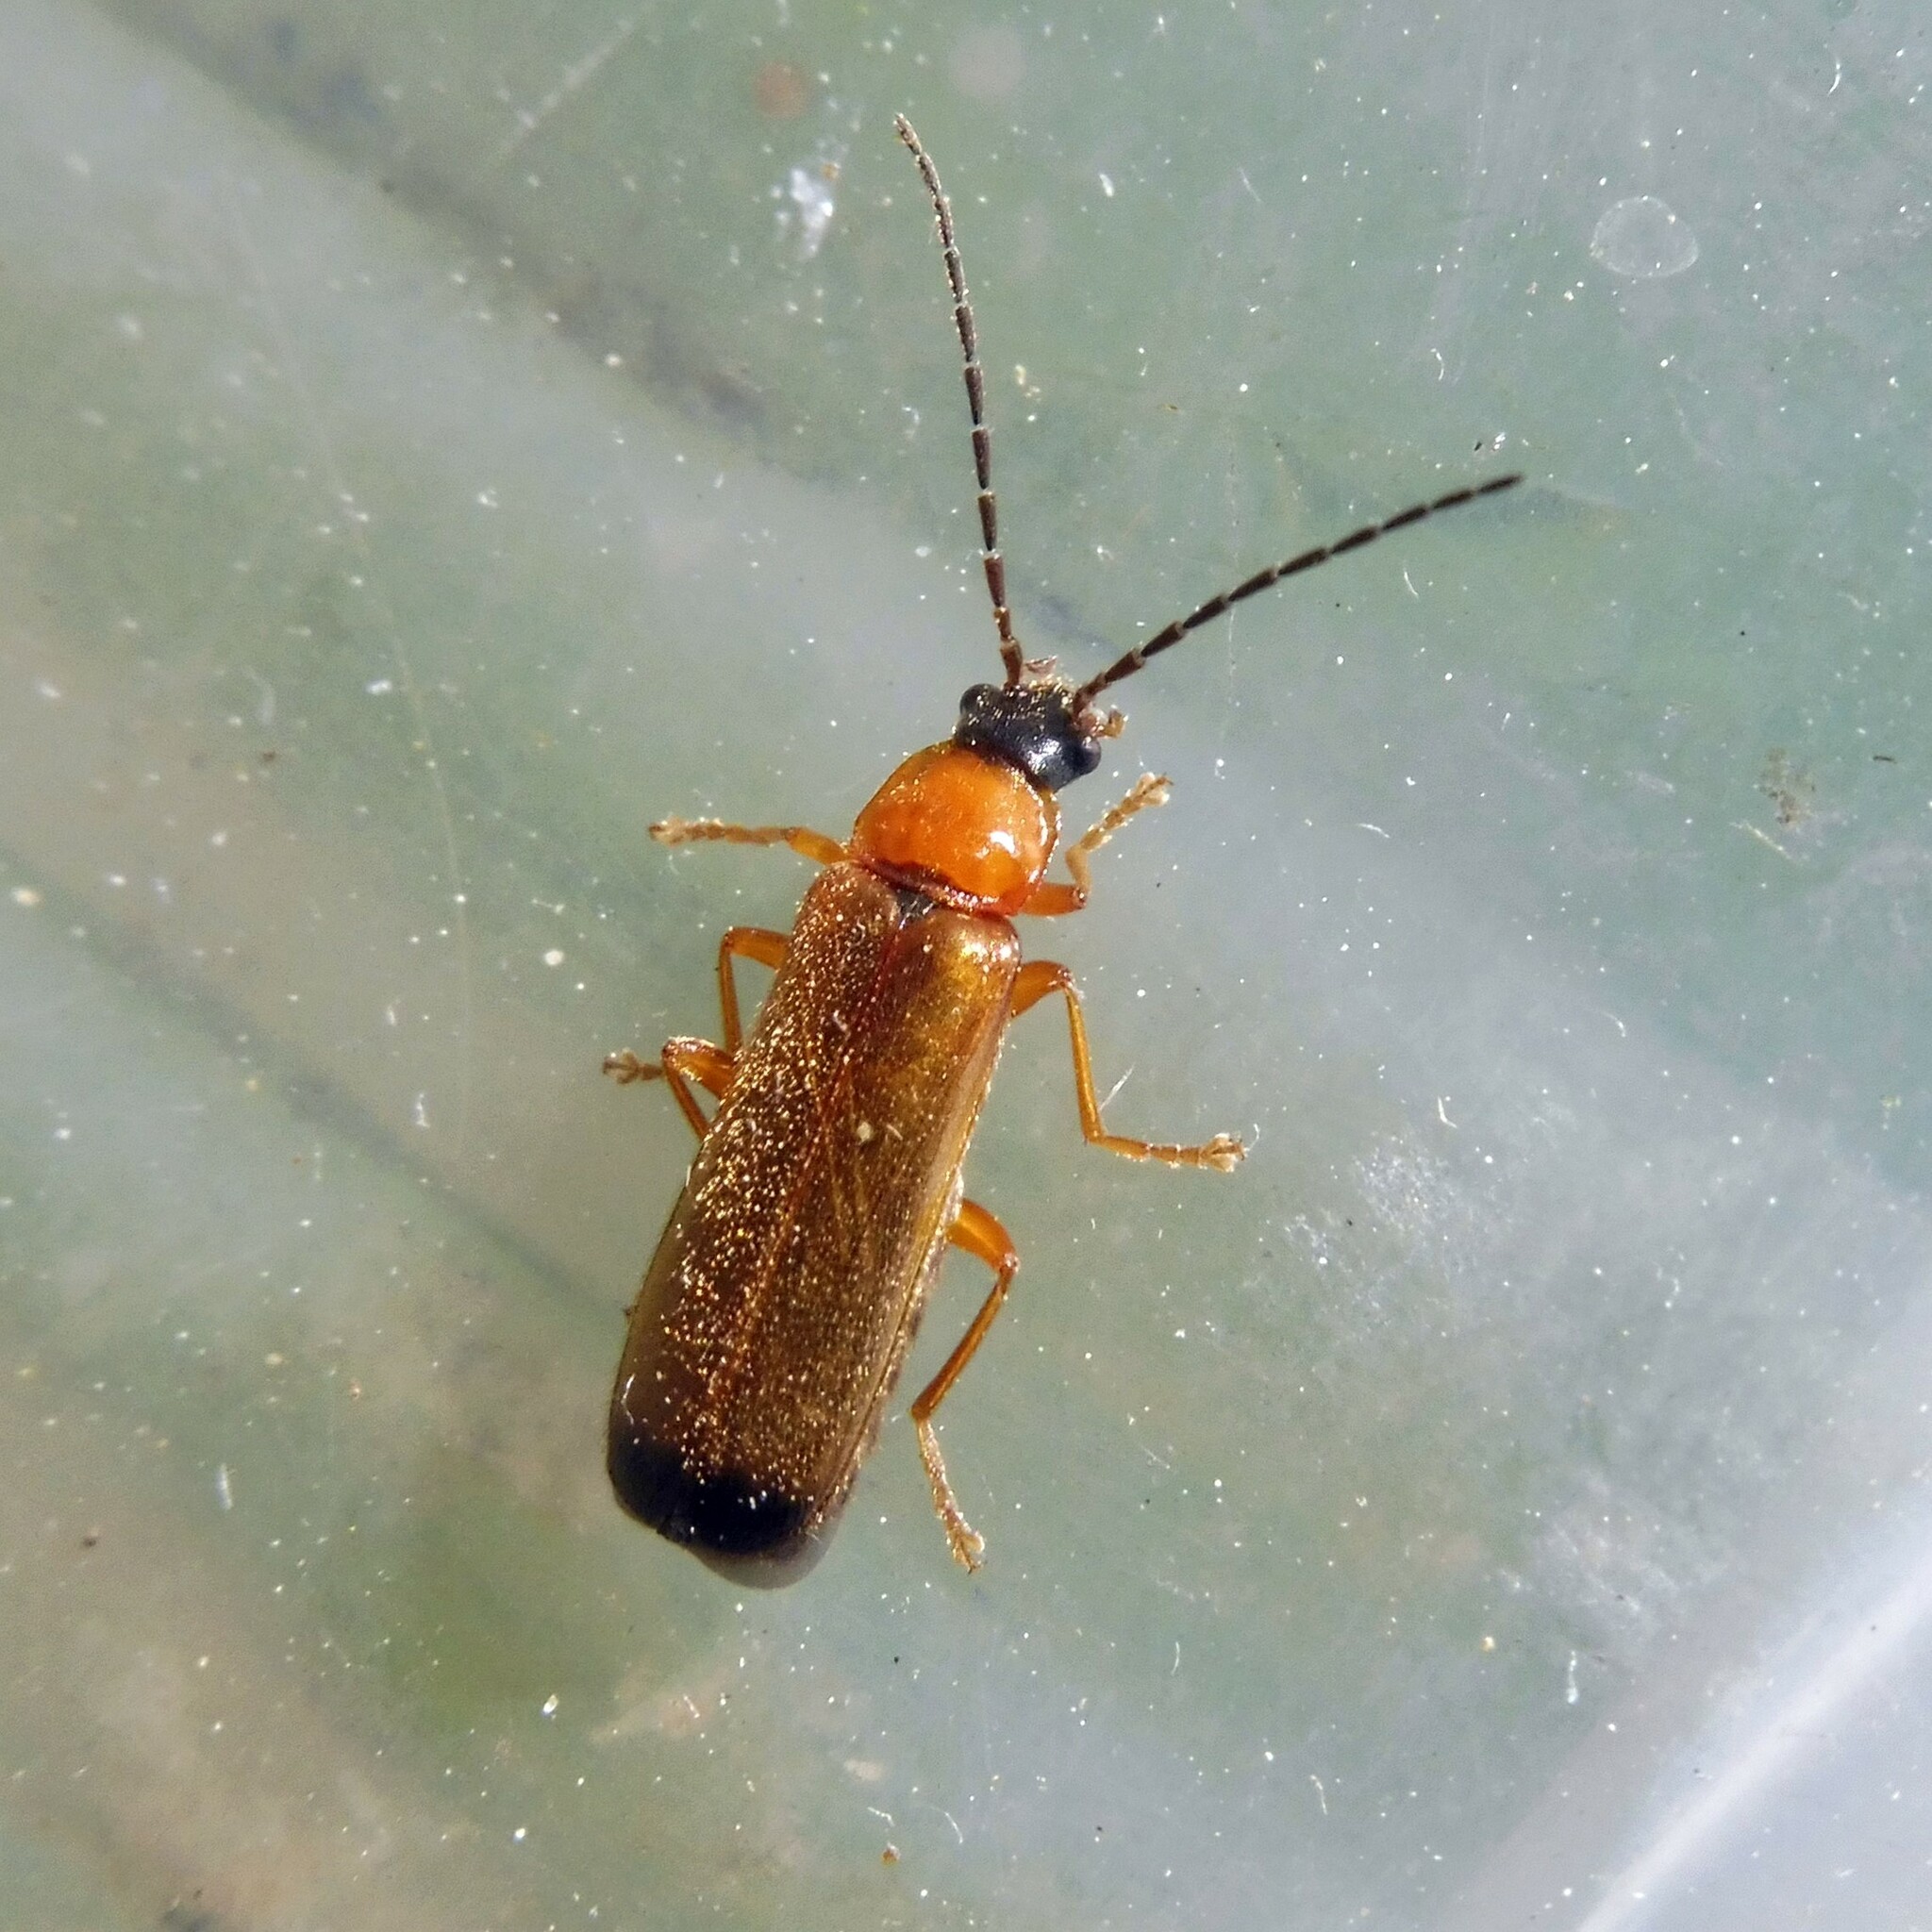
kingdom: Animalia
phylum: Arthropoda
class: Insecta
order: Coleoptera
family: Cantharidae
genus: Rhagonycha
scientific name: Rhagonycha lutea
